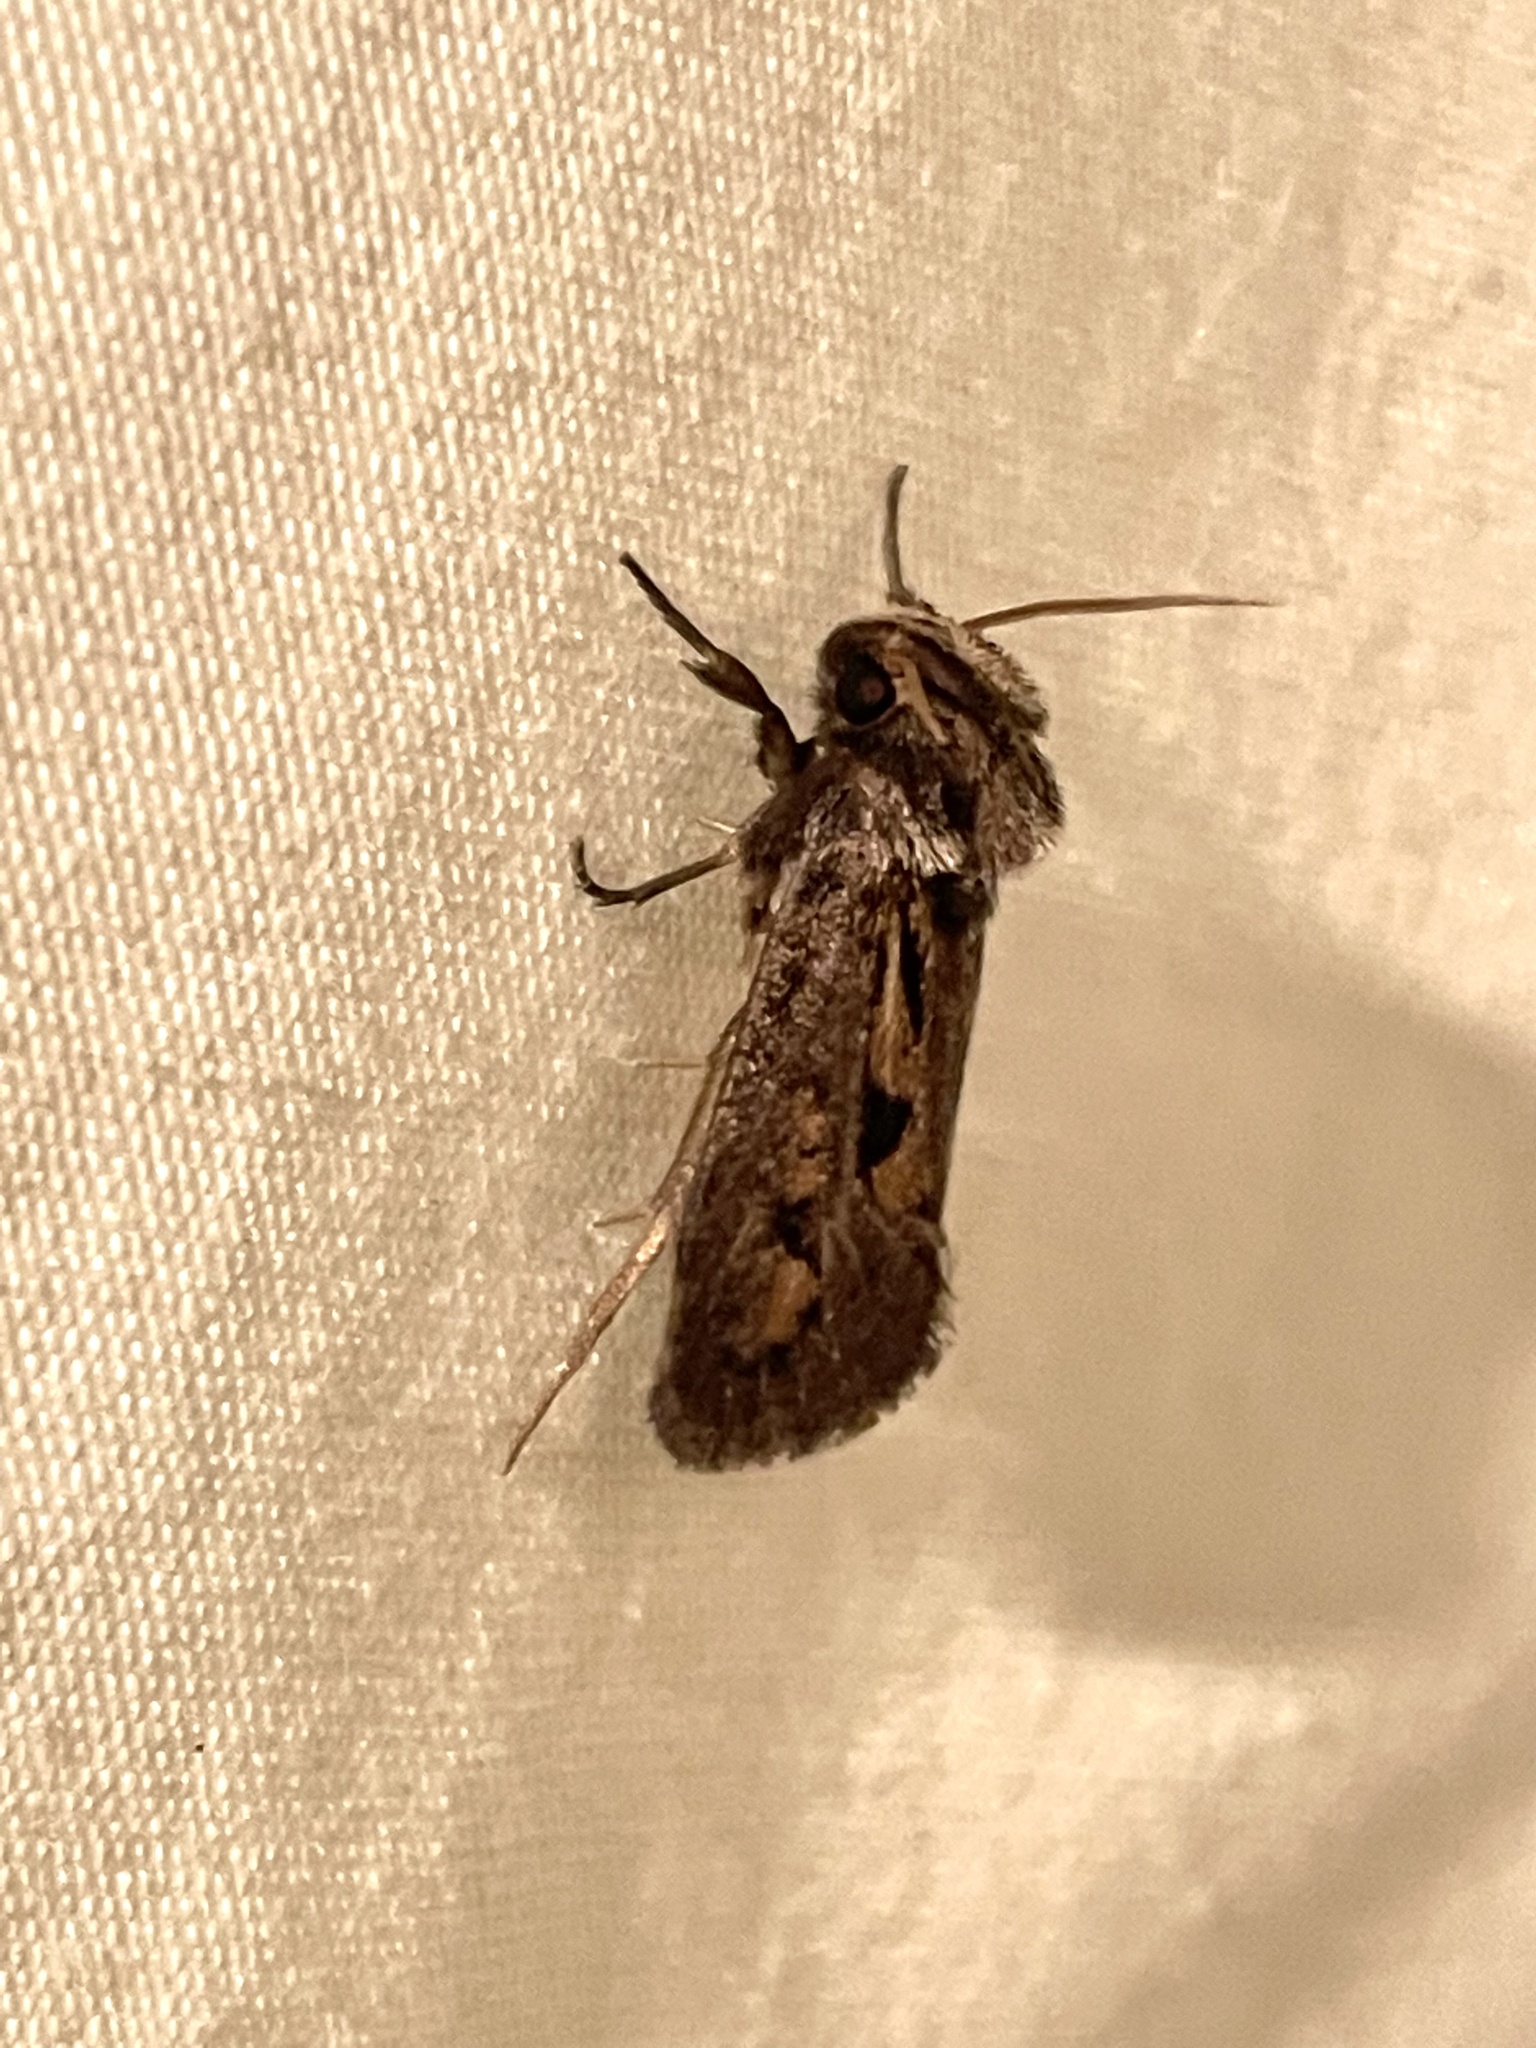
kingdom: Animalia
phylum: Arthropoda
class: Insecta
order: Lepidoptera
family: Tineidae
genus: Acrolophus
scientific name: Acrolophus popeanella
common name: Clemens' grass tubeworm moth
